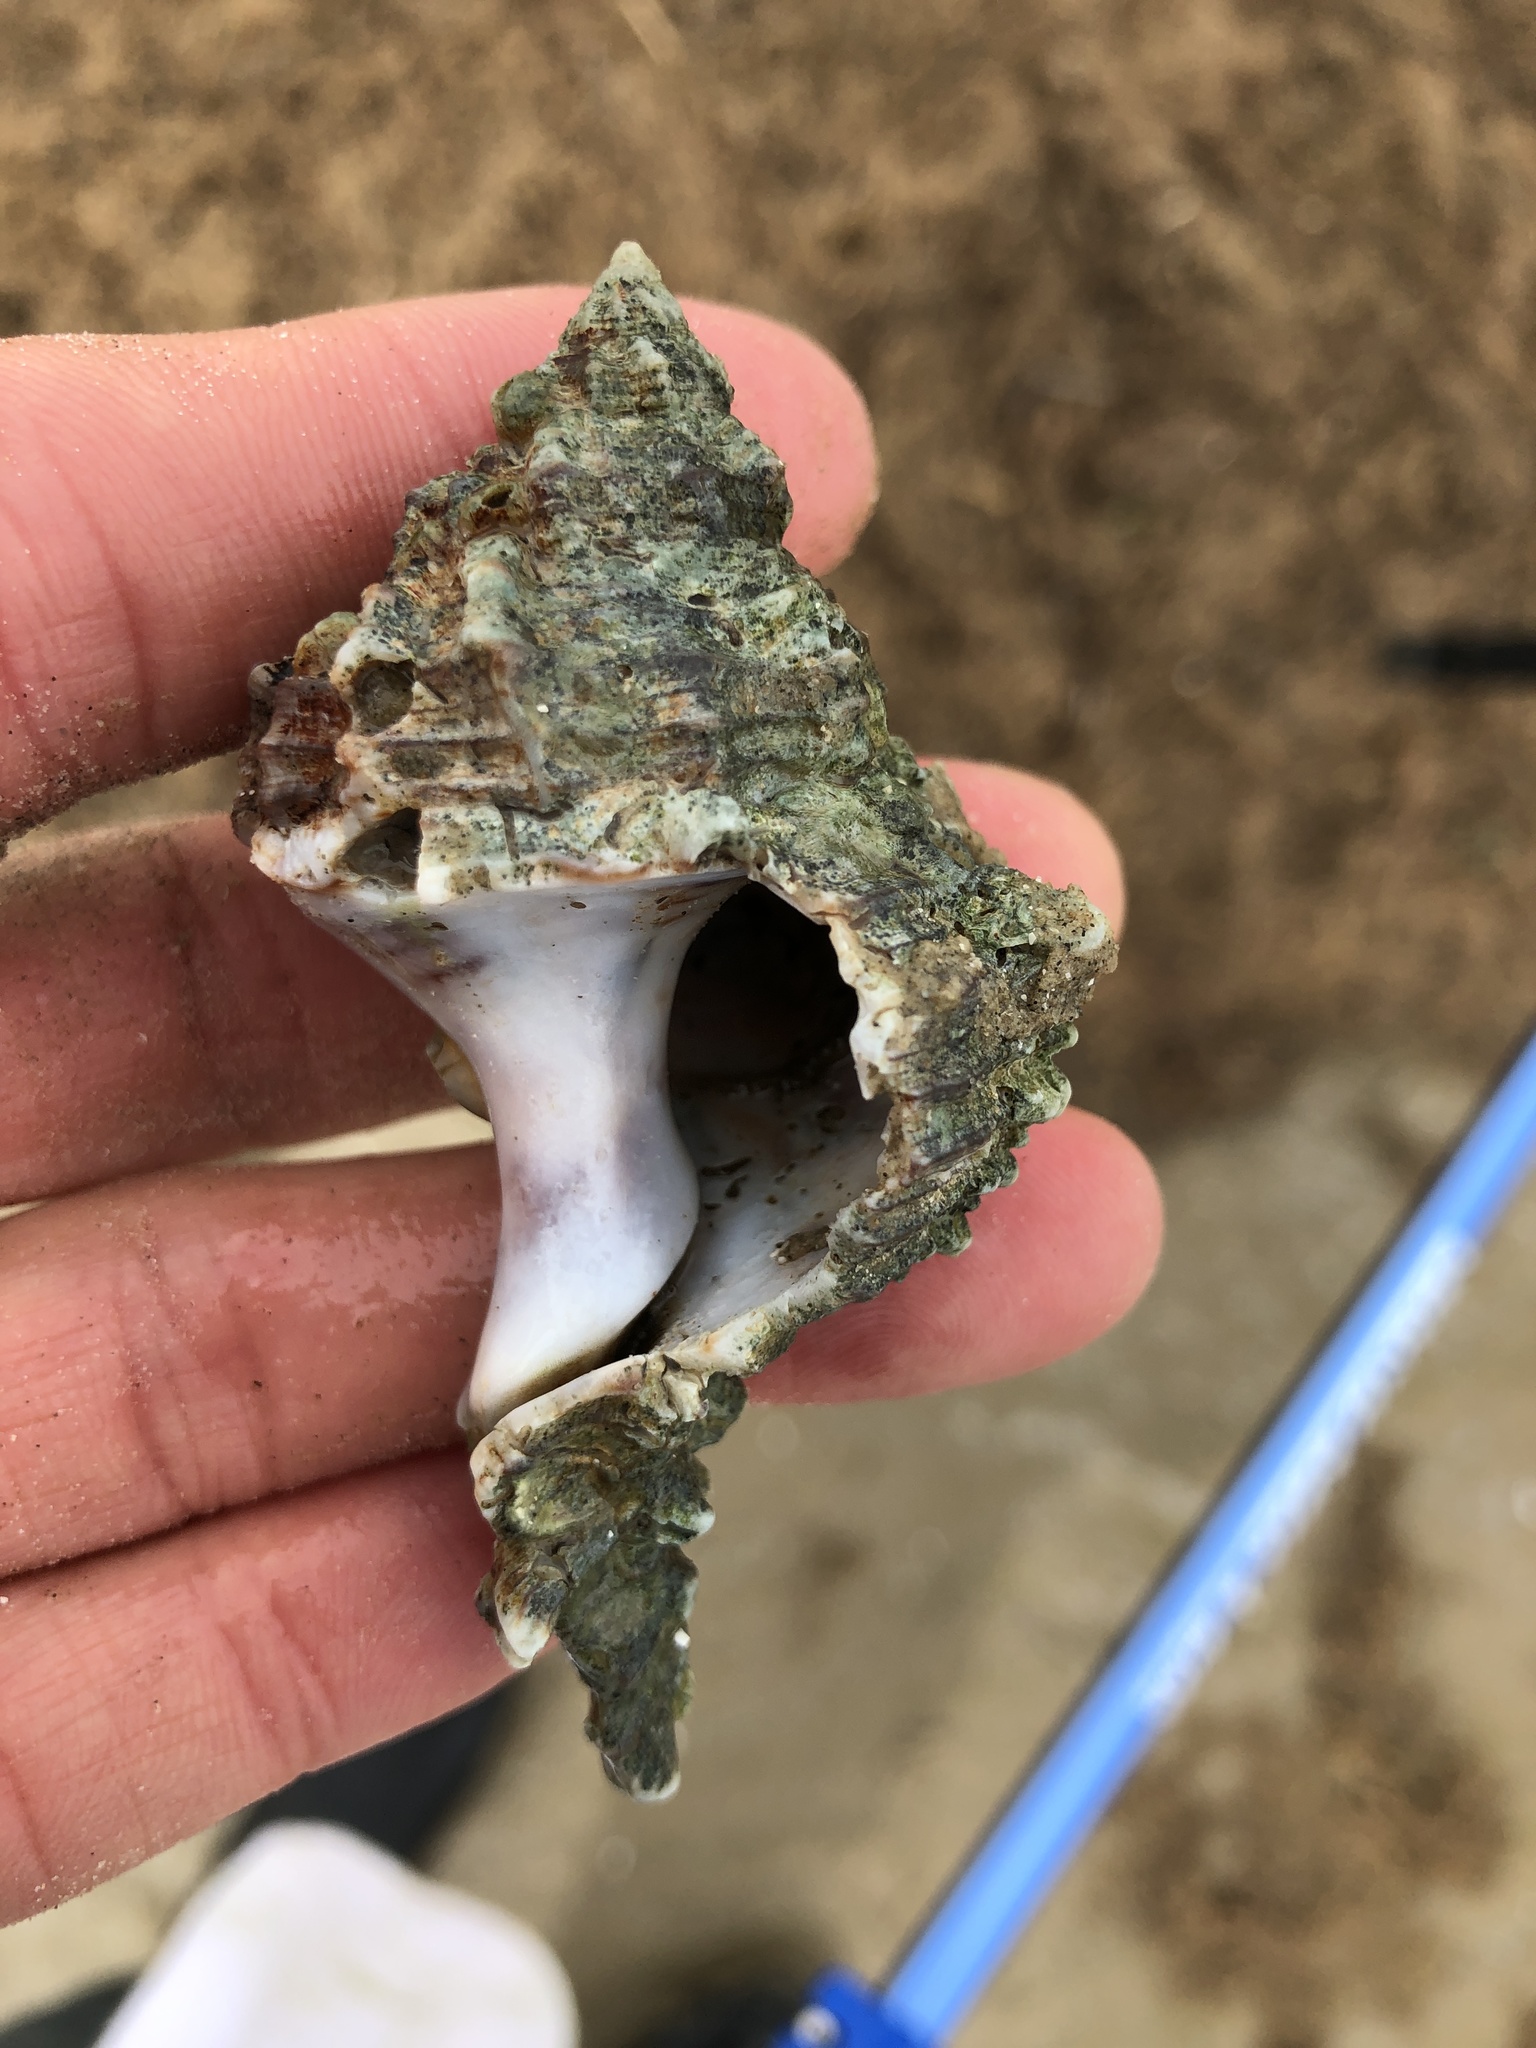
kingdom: Animalia
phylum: Mollusca
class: Gastropoda
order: Neogastropoda
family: Muricidae
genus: Hexaplex
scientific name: Hexaplex fulvescens
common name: Tawny murex
